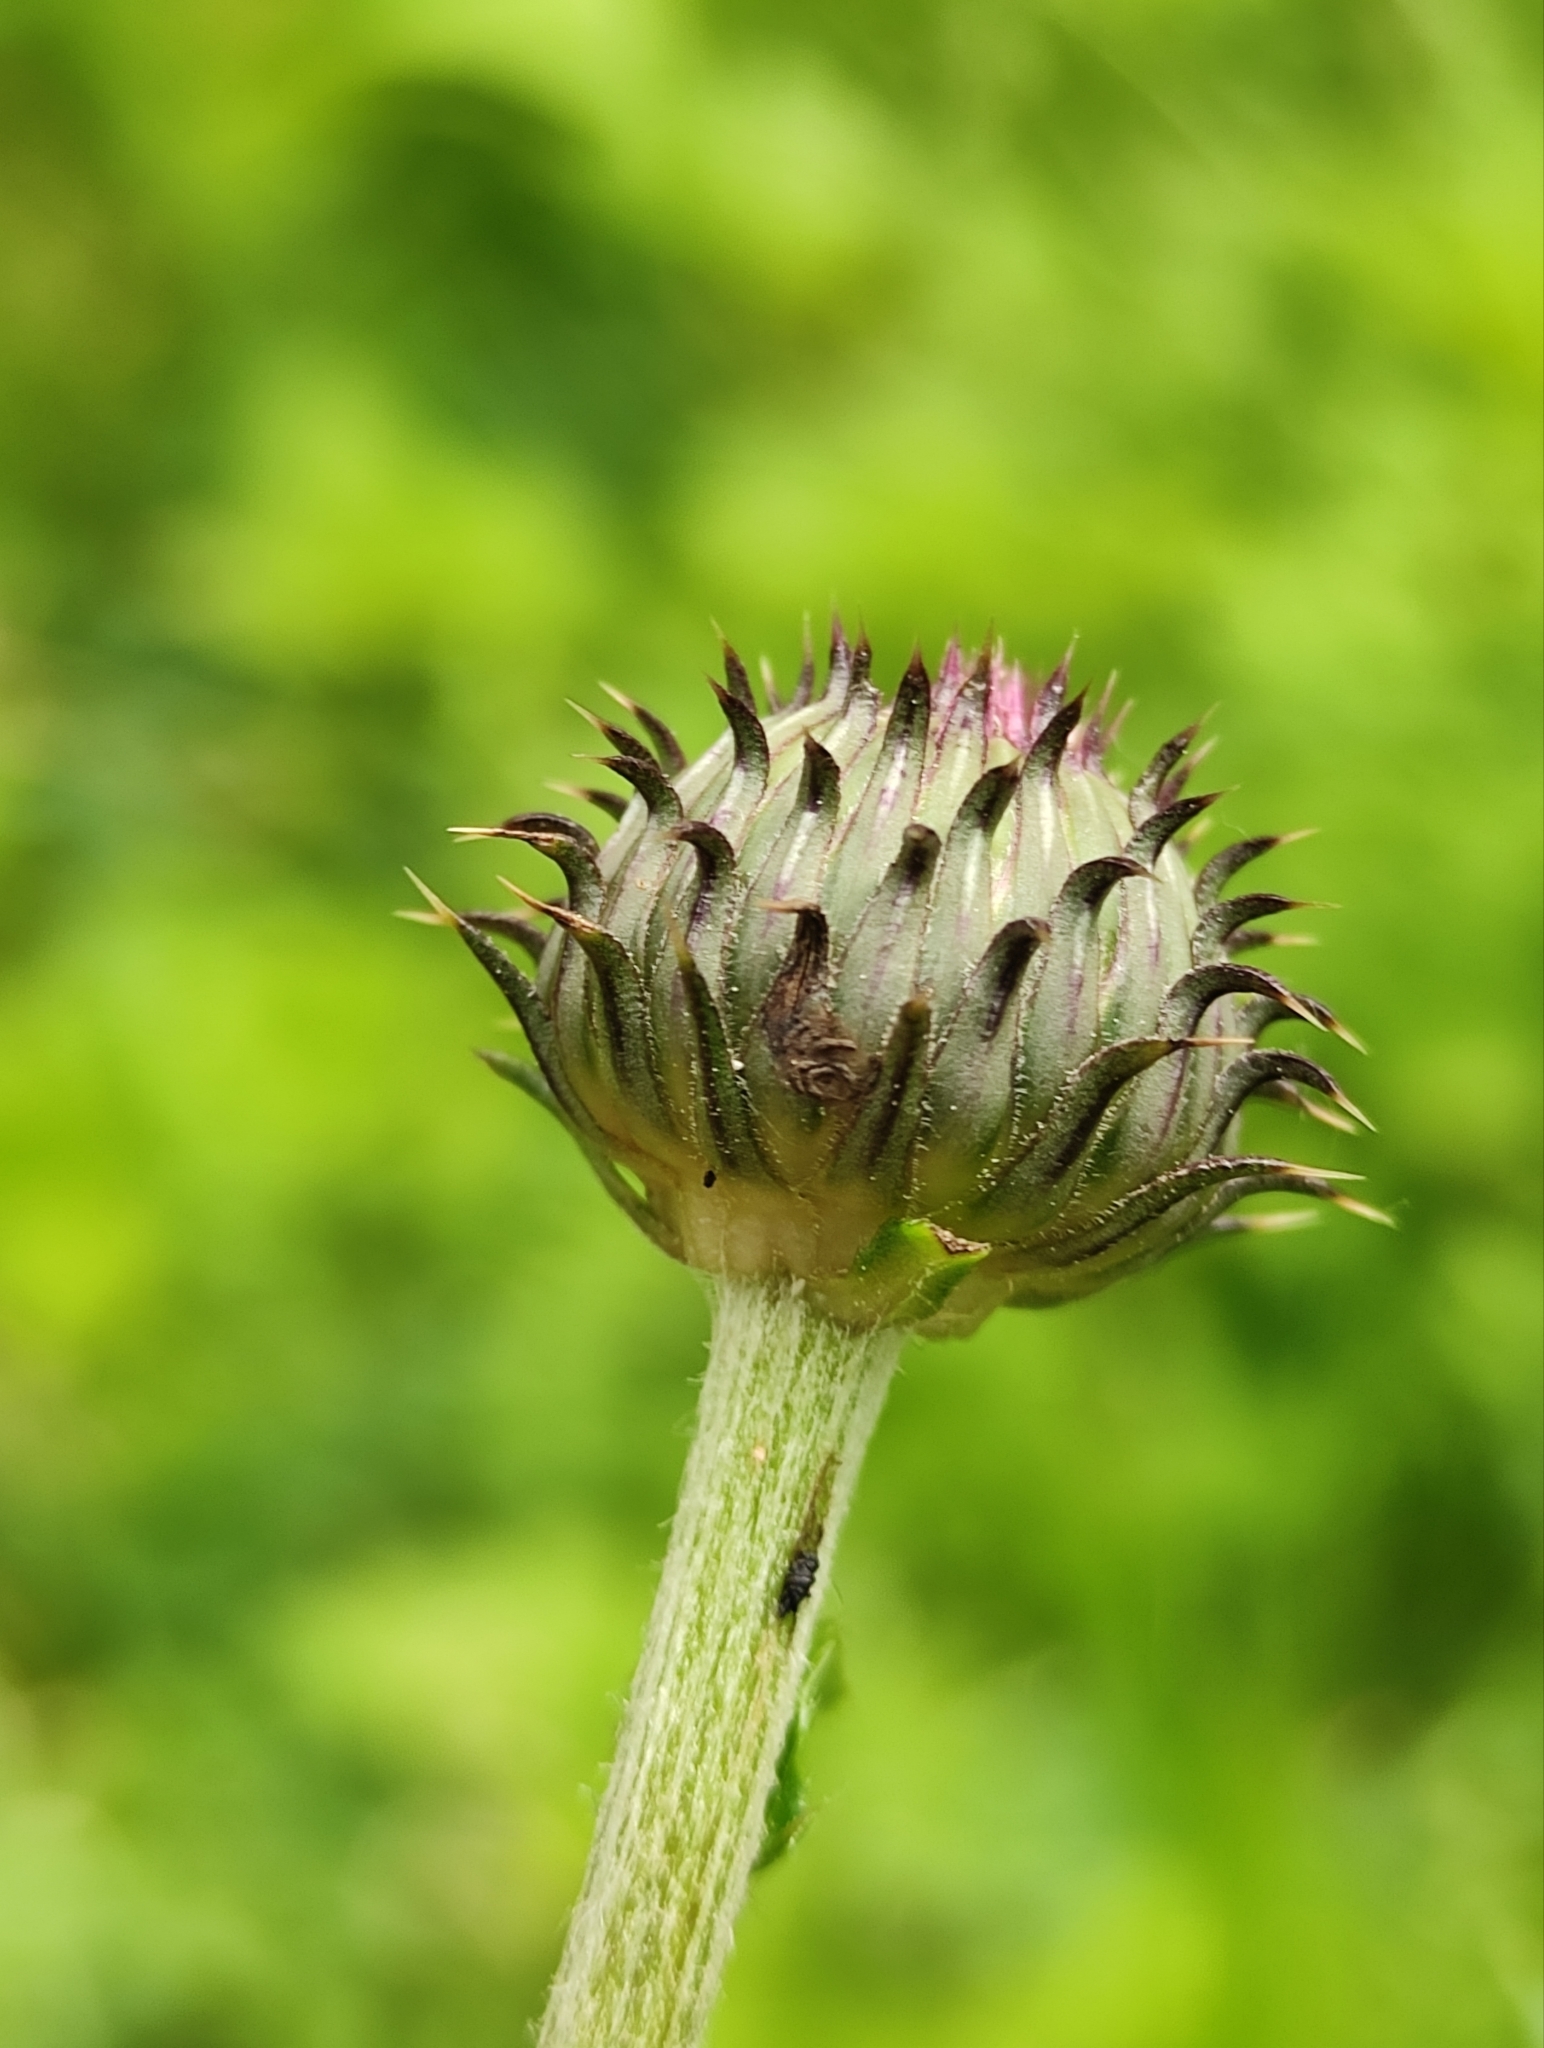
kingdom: Plantae
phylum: Tracheophyta
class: Magnoliopsida
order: Asterales
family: Asteraceae
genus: Cirsium
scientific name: Cirsium serratuloides
